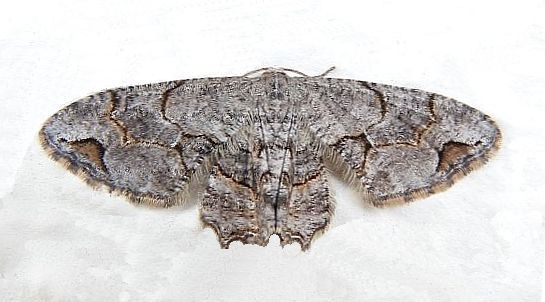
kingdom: Animalia
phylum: Arthropoda
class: Insecta
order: Lepidoptera
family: Uraniidae
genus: Epiplema
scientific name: Epiplema Callizzia amorata
